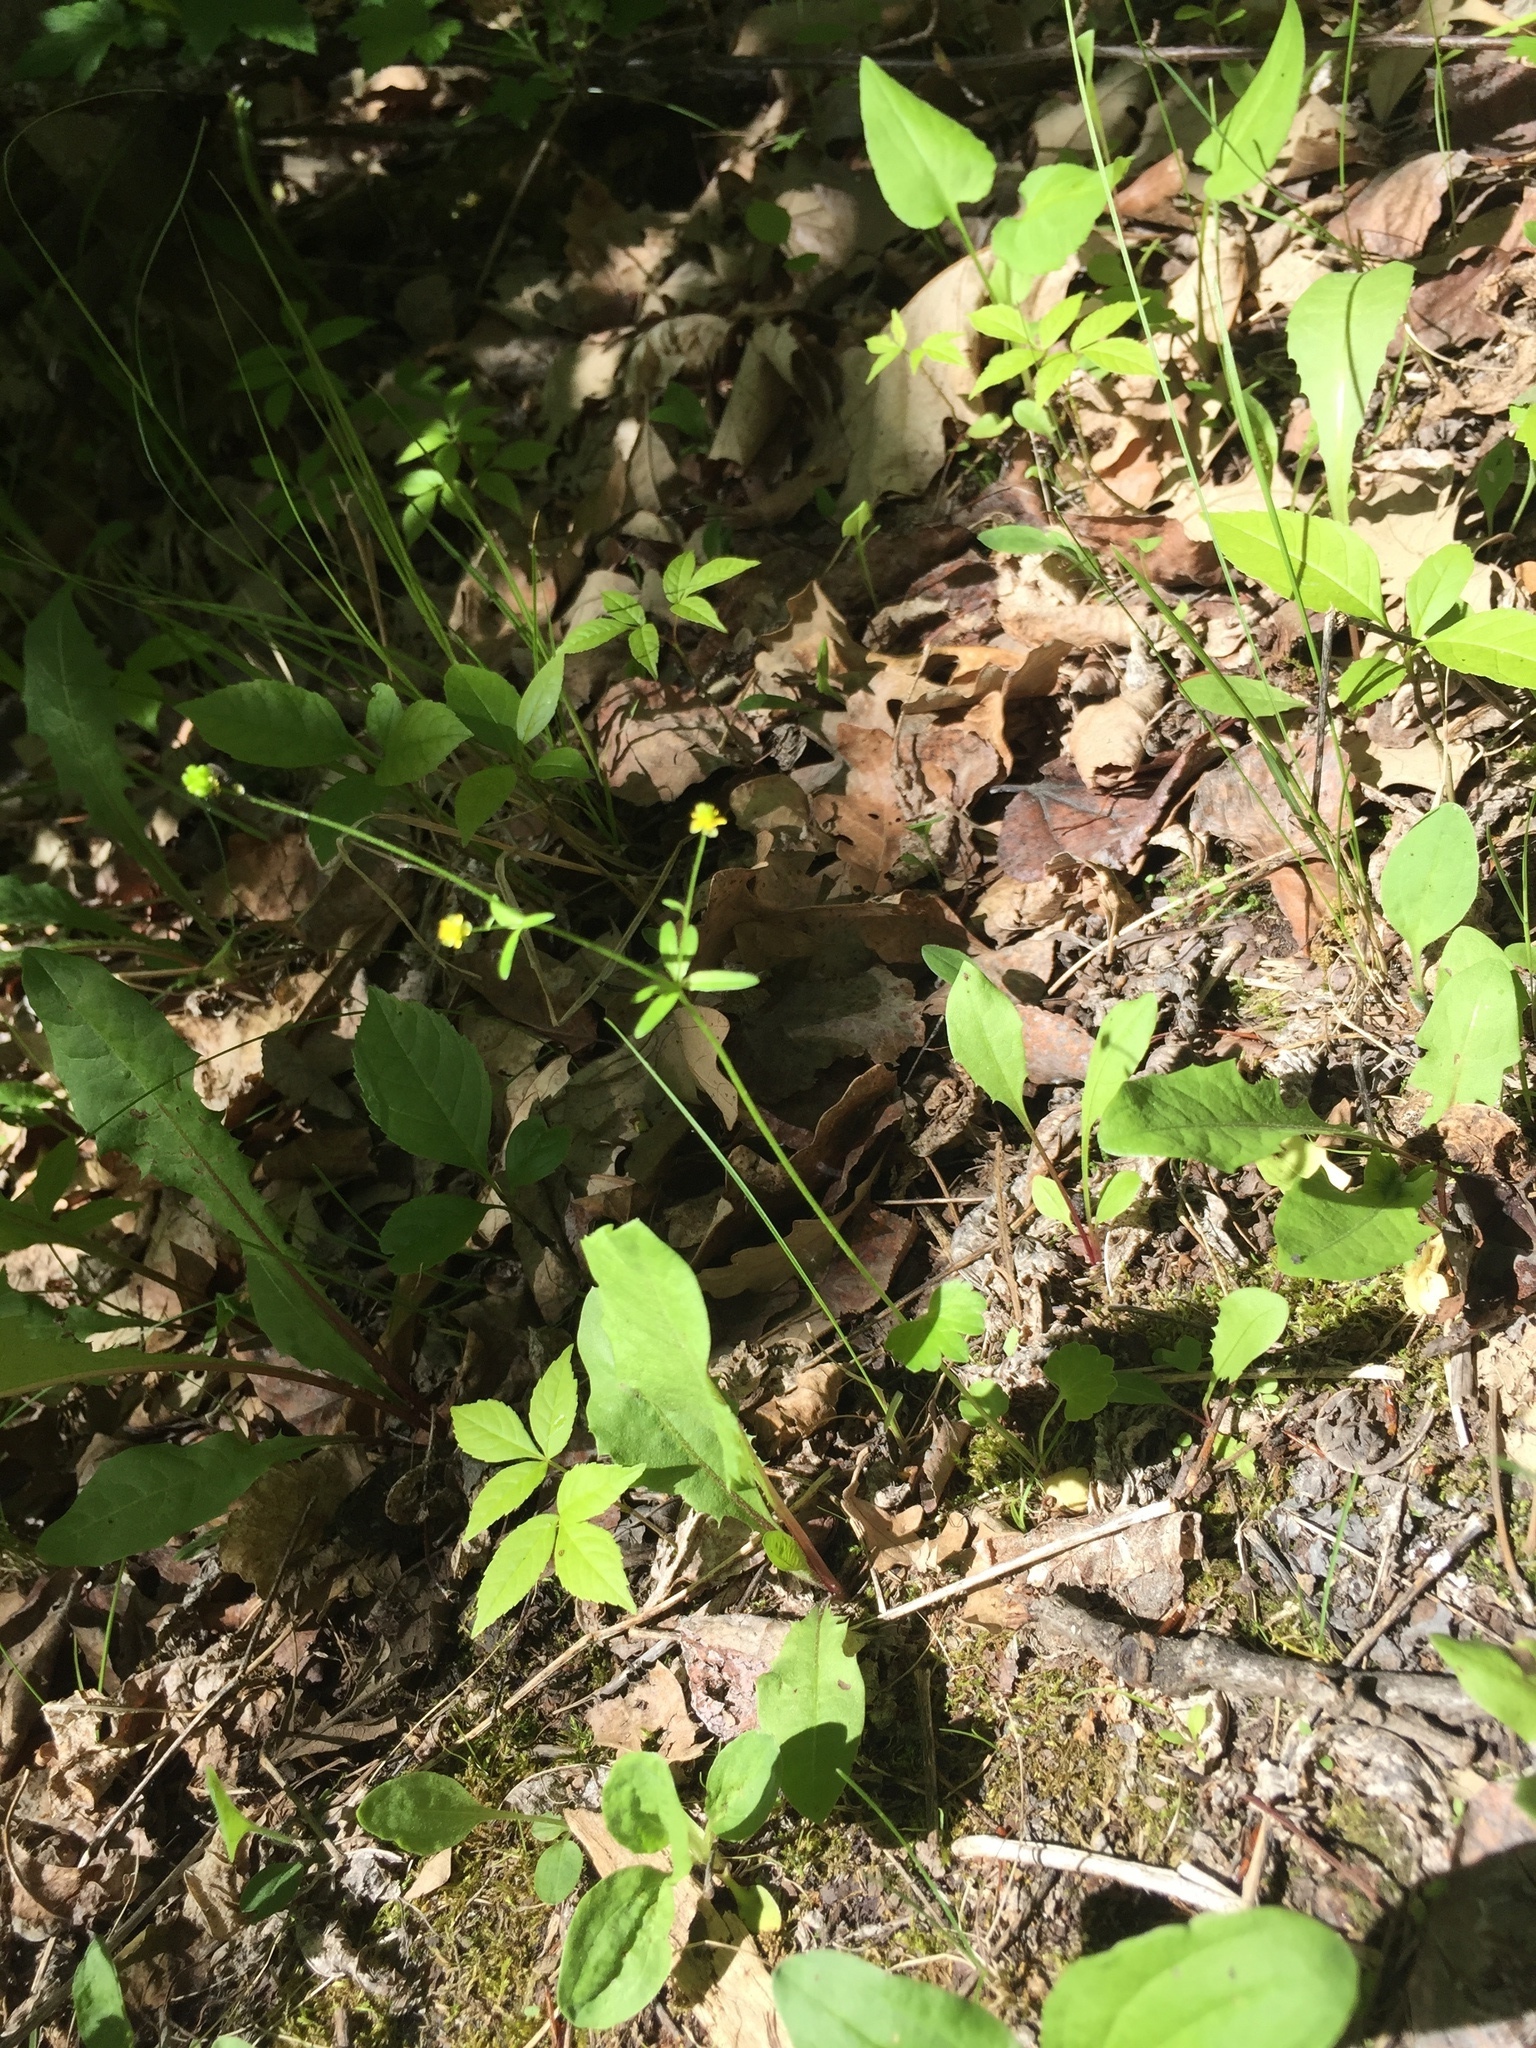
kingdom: Plantae
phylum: Tracheophyta
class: Magnoliopsida
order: Ranunculales
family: Ranunculaceae
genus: Ranunculus
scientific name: Ranunculus abortivus
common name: Early wood buttercup
